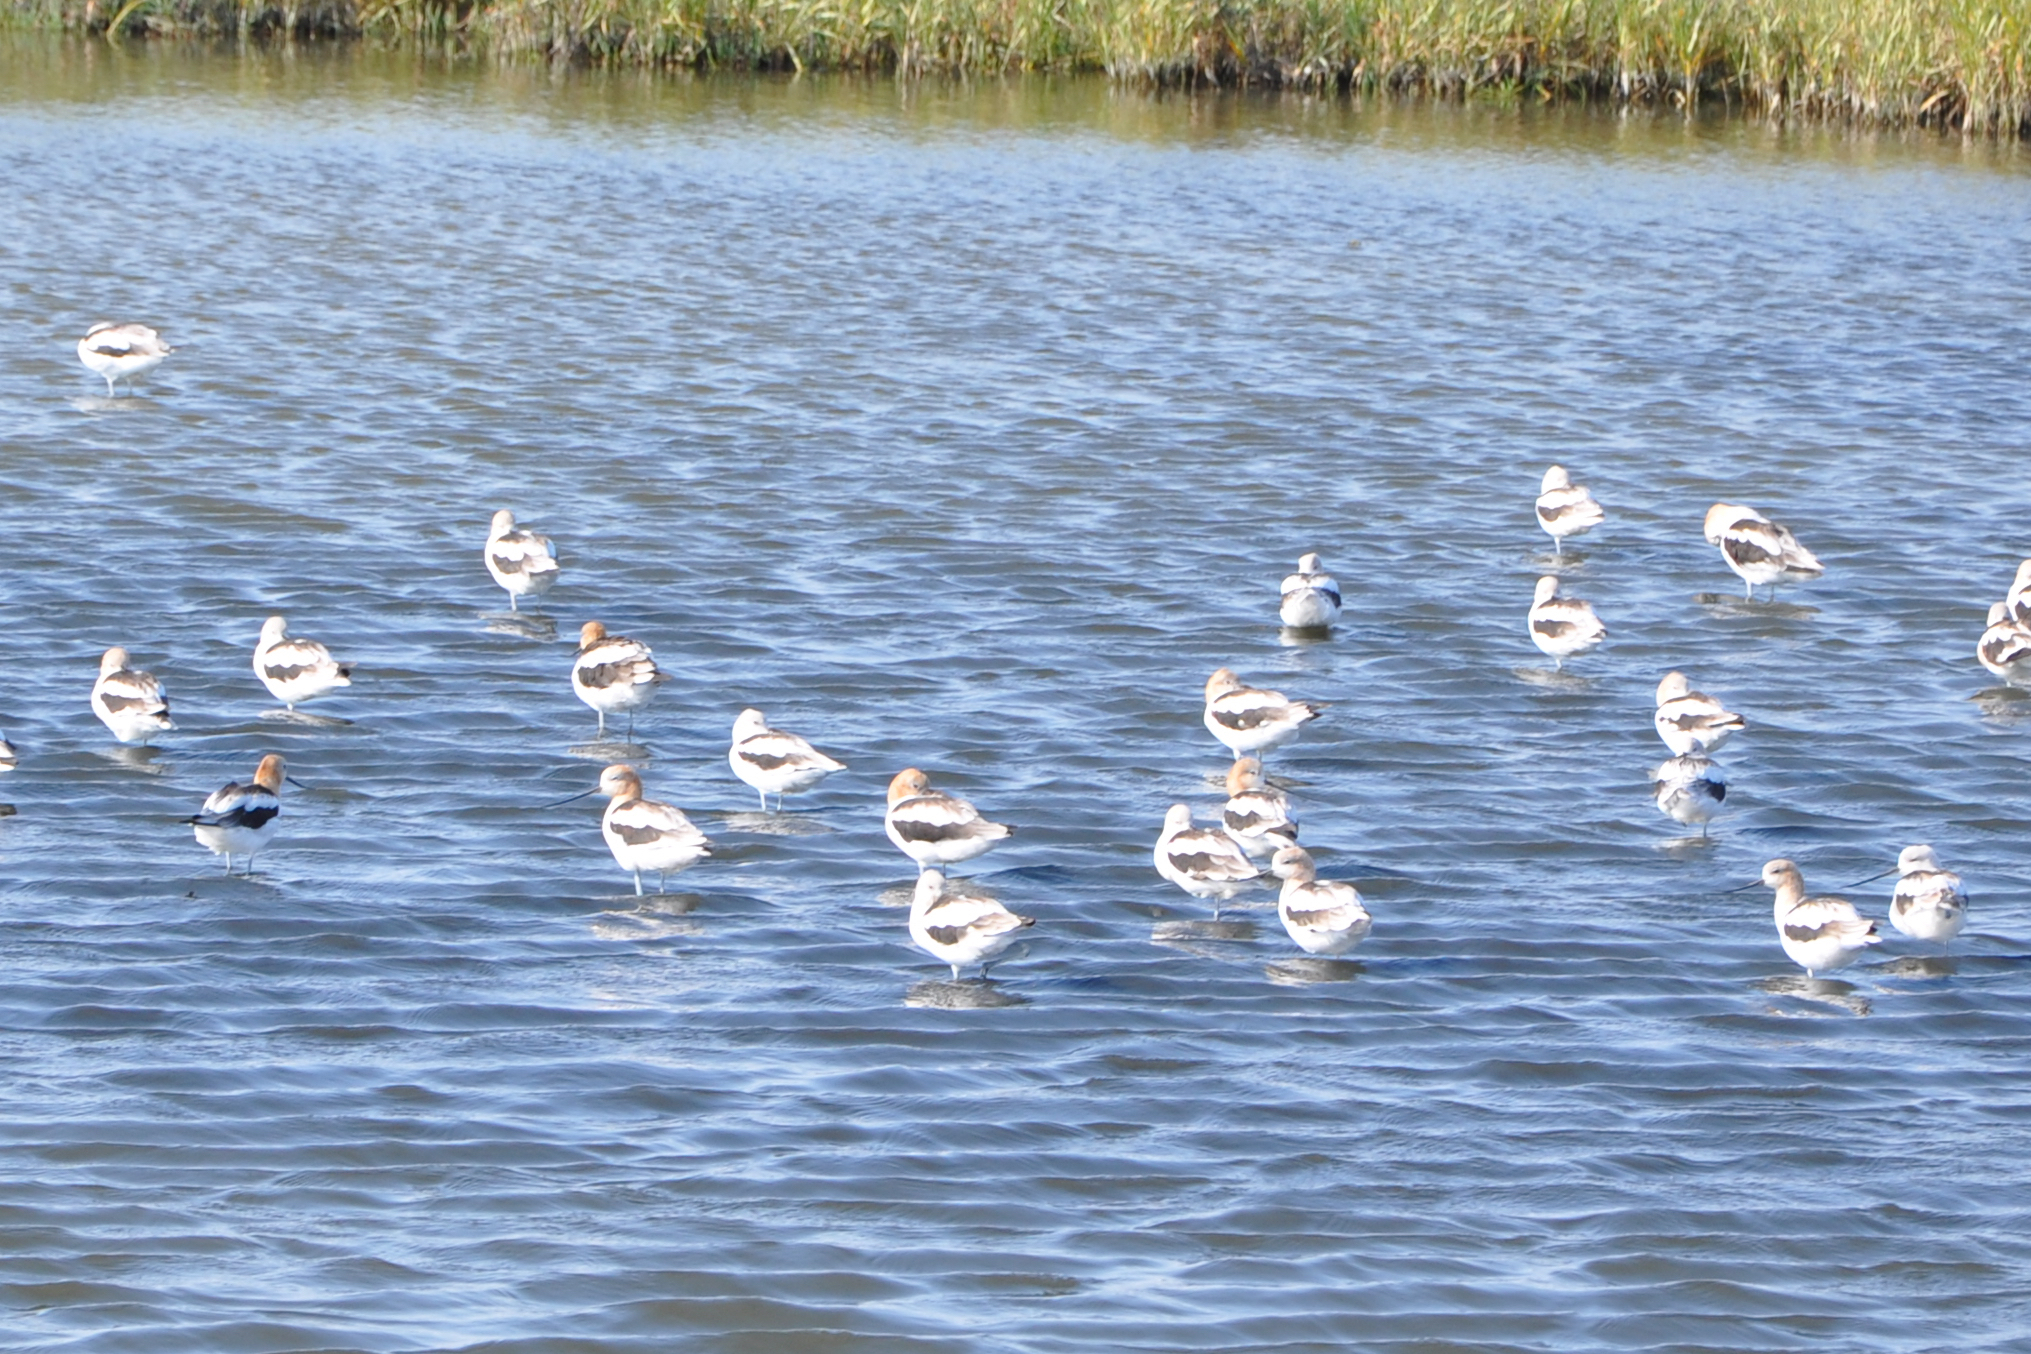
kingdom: Animalia
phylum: Chordata
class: Aves
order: Charadriiformes
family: Recurvirostridae
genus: Recurvirostra
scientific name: Recurvirostra americana
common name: American avocet
